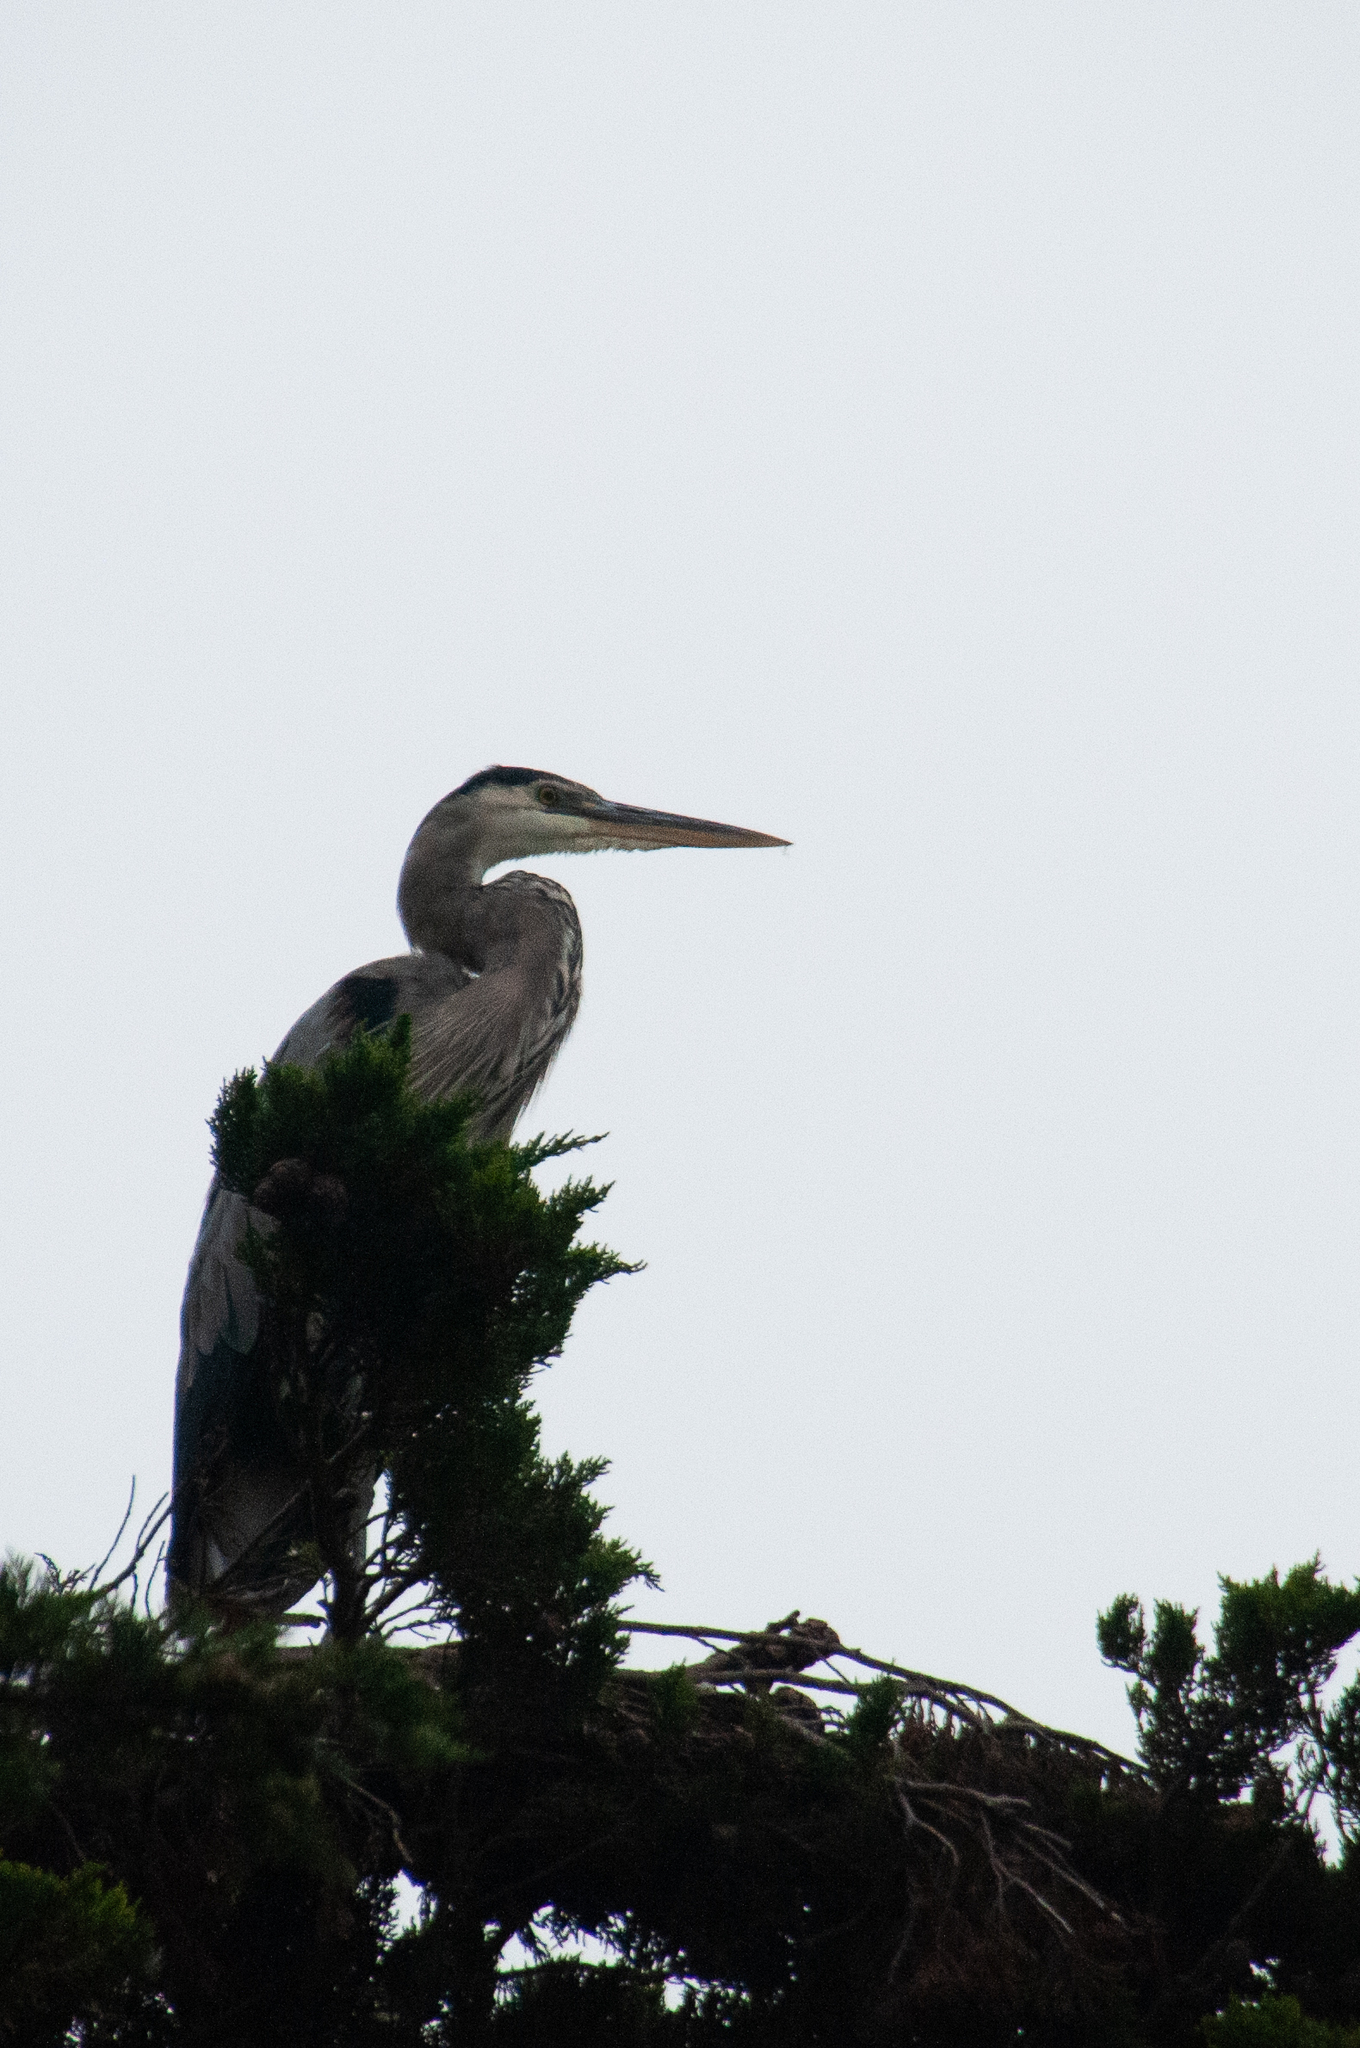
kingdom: Animalia
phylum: Chordata
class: Aves
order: Pelecaniformes
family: Ardeidae
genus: Ardea
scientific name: Ardea herodias
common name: Great blue heron
